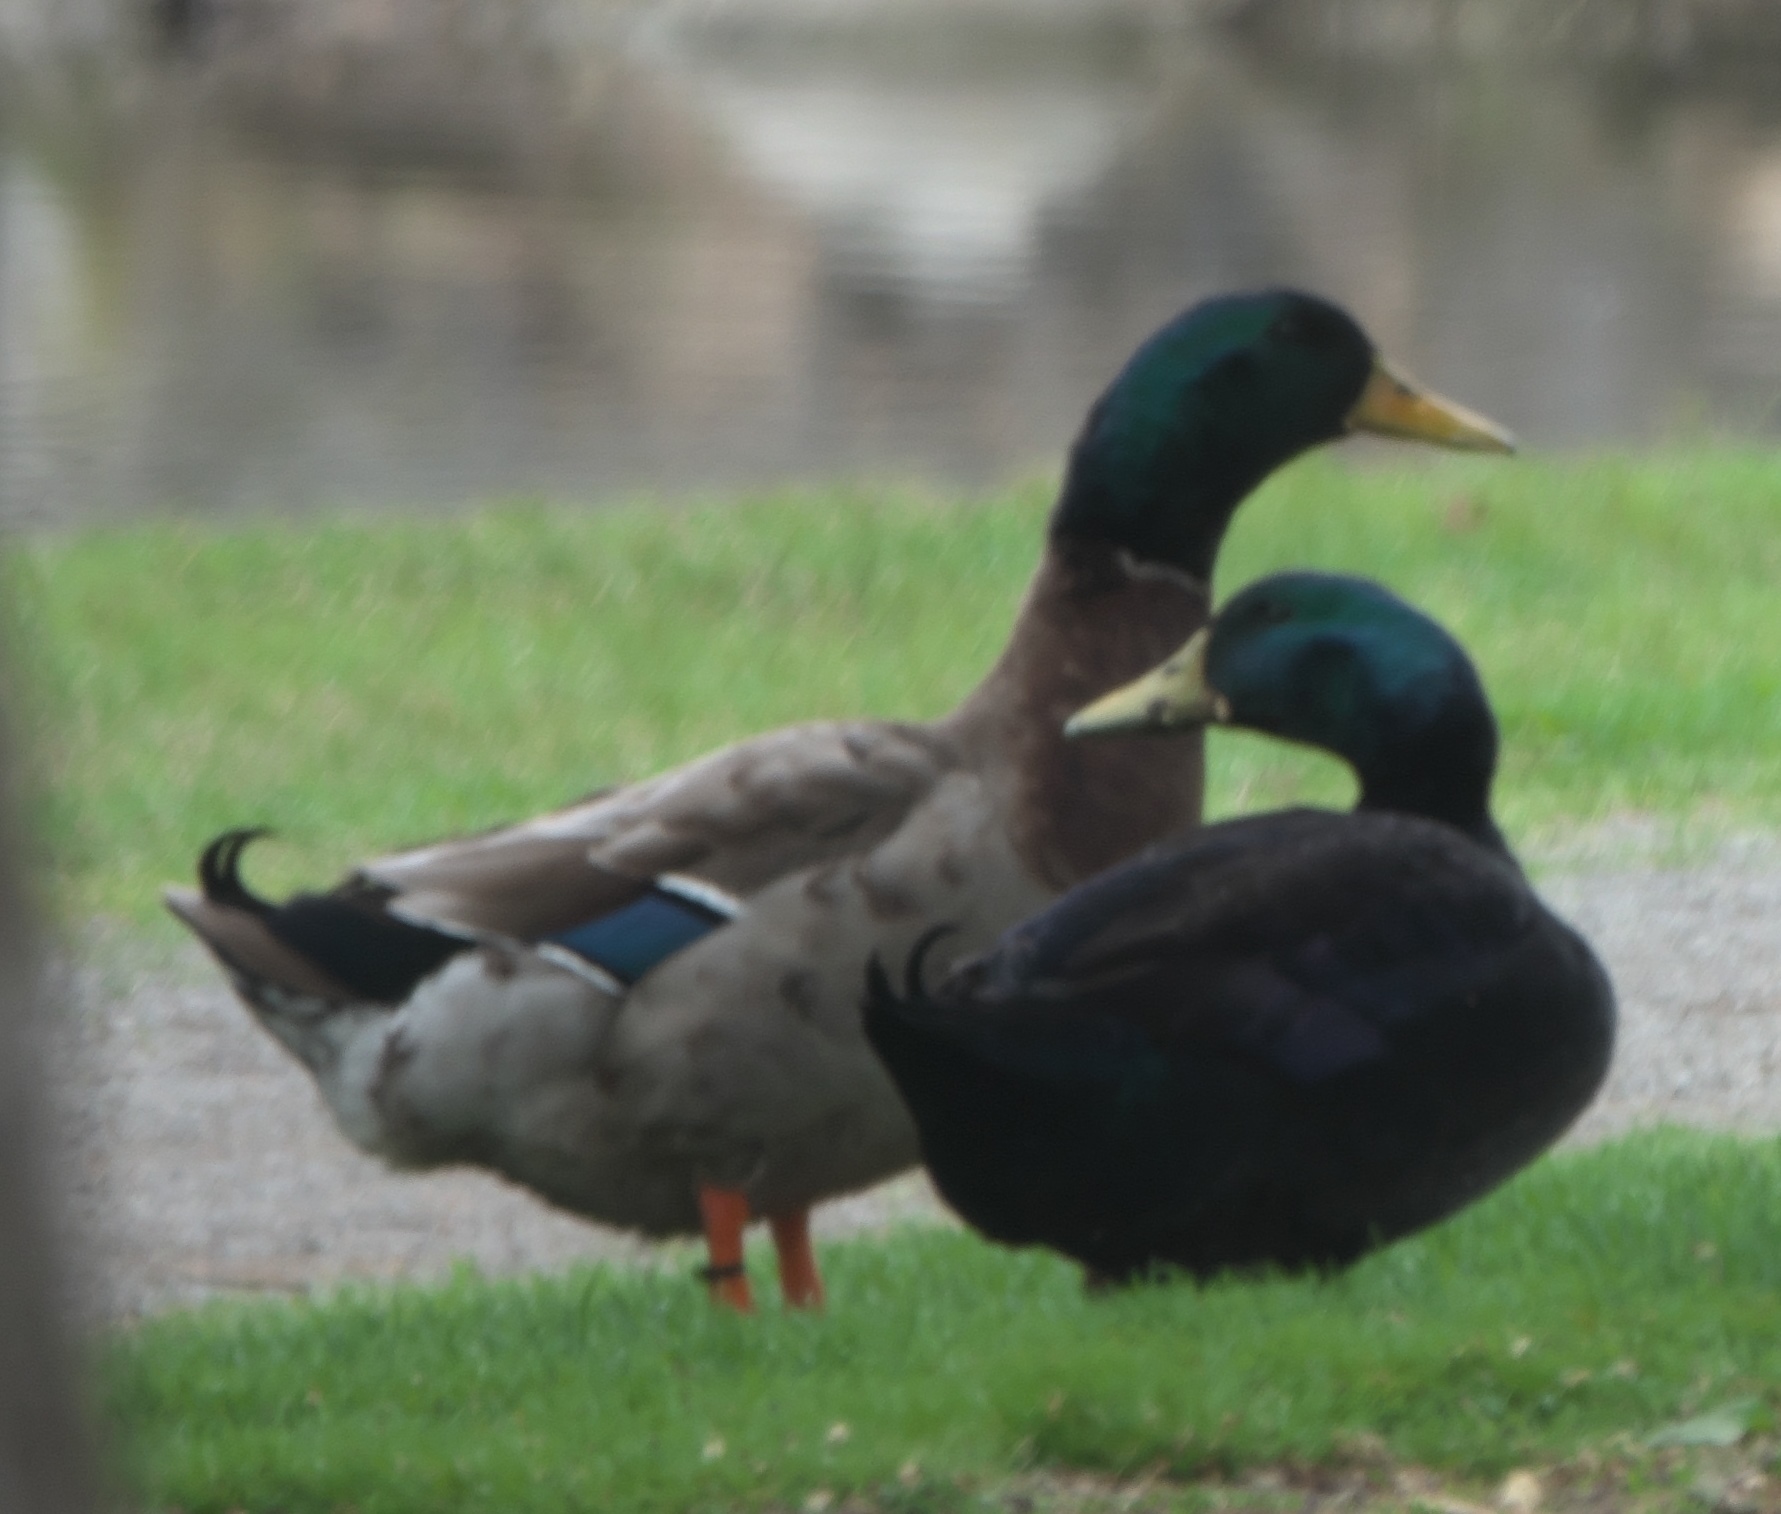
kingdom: Animalia
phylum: Chordata
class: Aves
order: Anseriformes
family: Anatidae
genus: Anas
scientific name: Anas platyrhynchos
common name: Mallard
